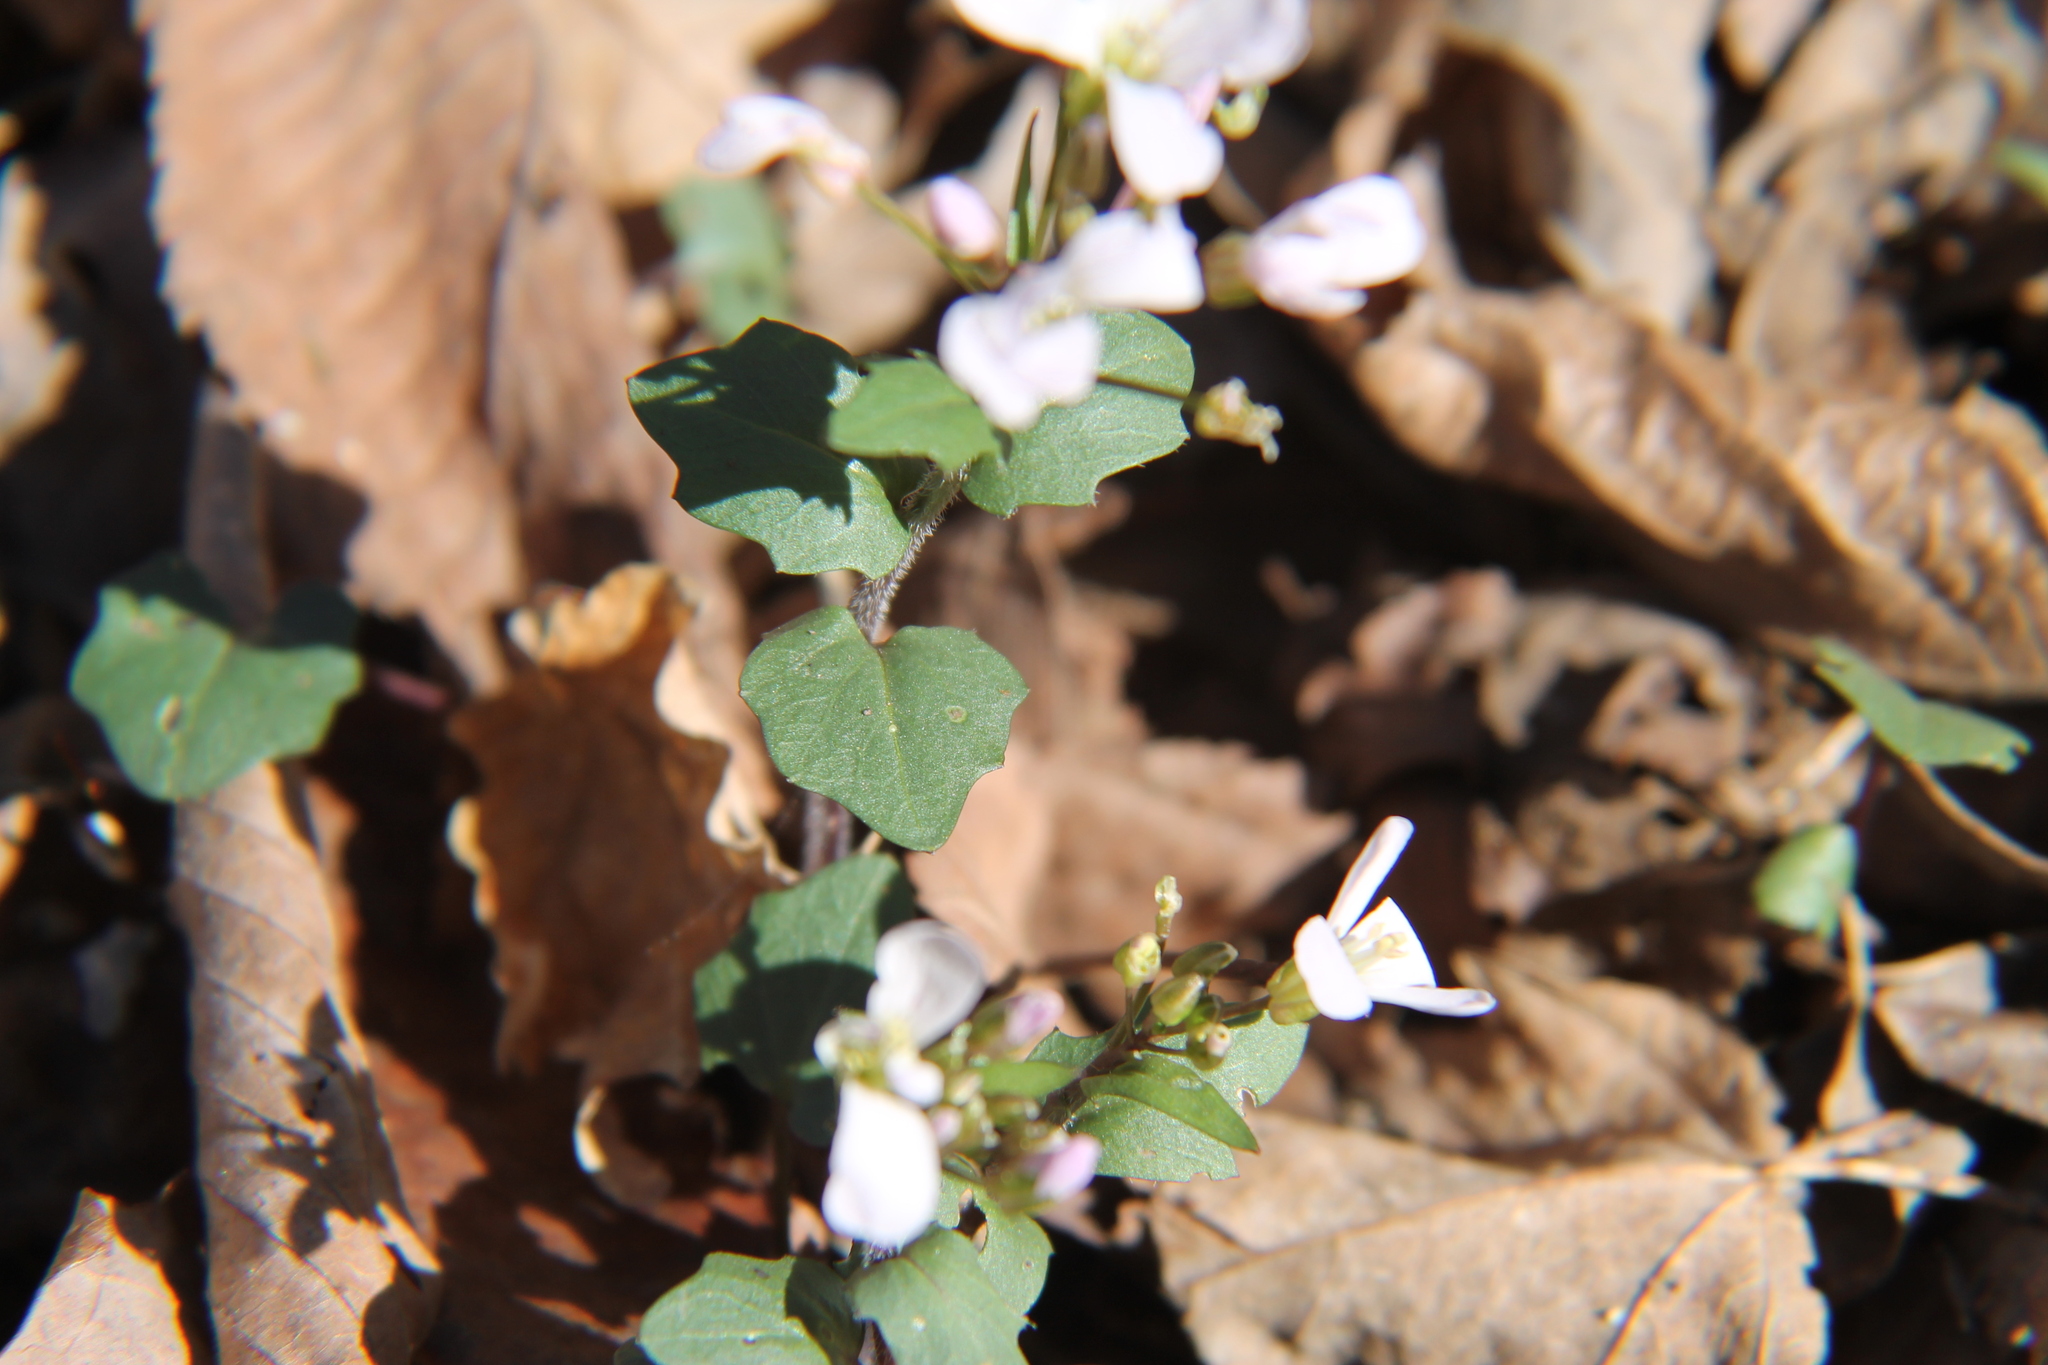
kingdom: Plantae
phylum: Tracheophyta
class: Magnoliopsida
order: Brassicales
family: Brassicaceae
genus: Cardamine
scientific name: Cardamine douglassii
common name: Purple cress
